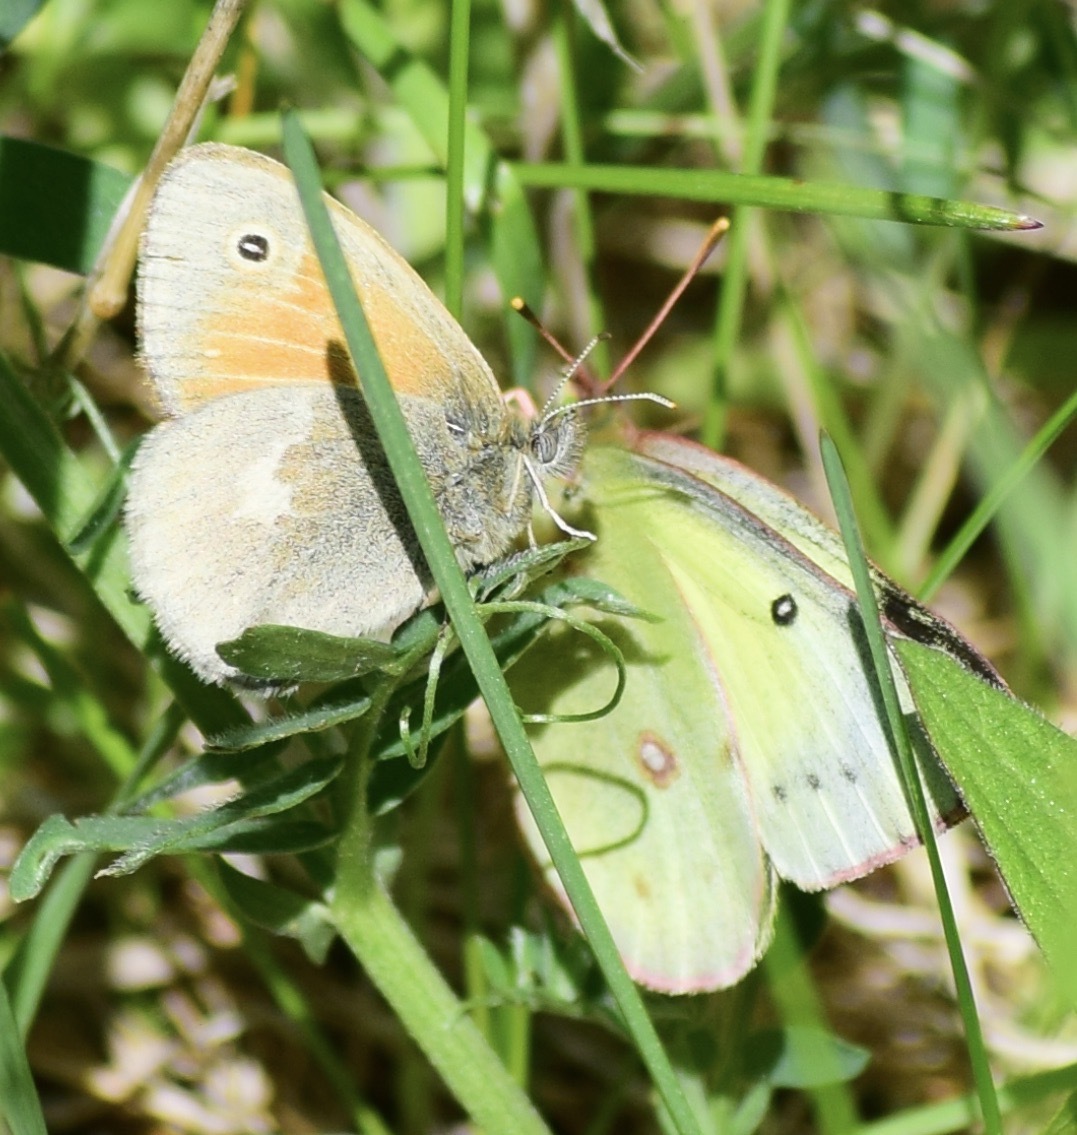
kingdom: Animalia
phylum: Arthropoda
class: Insecta
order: Lepidoptera
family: Nymphalidae
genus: Coenonympha
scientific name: Coenonympha california
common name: Common ringlet
